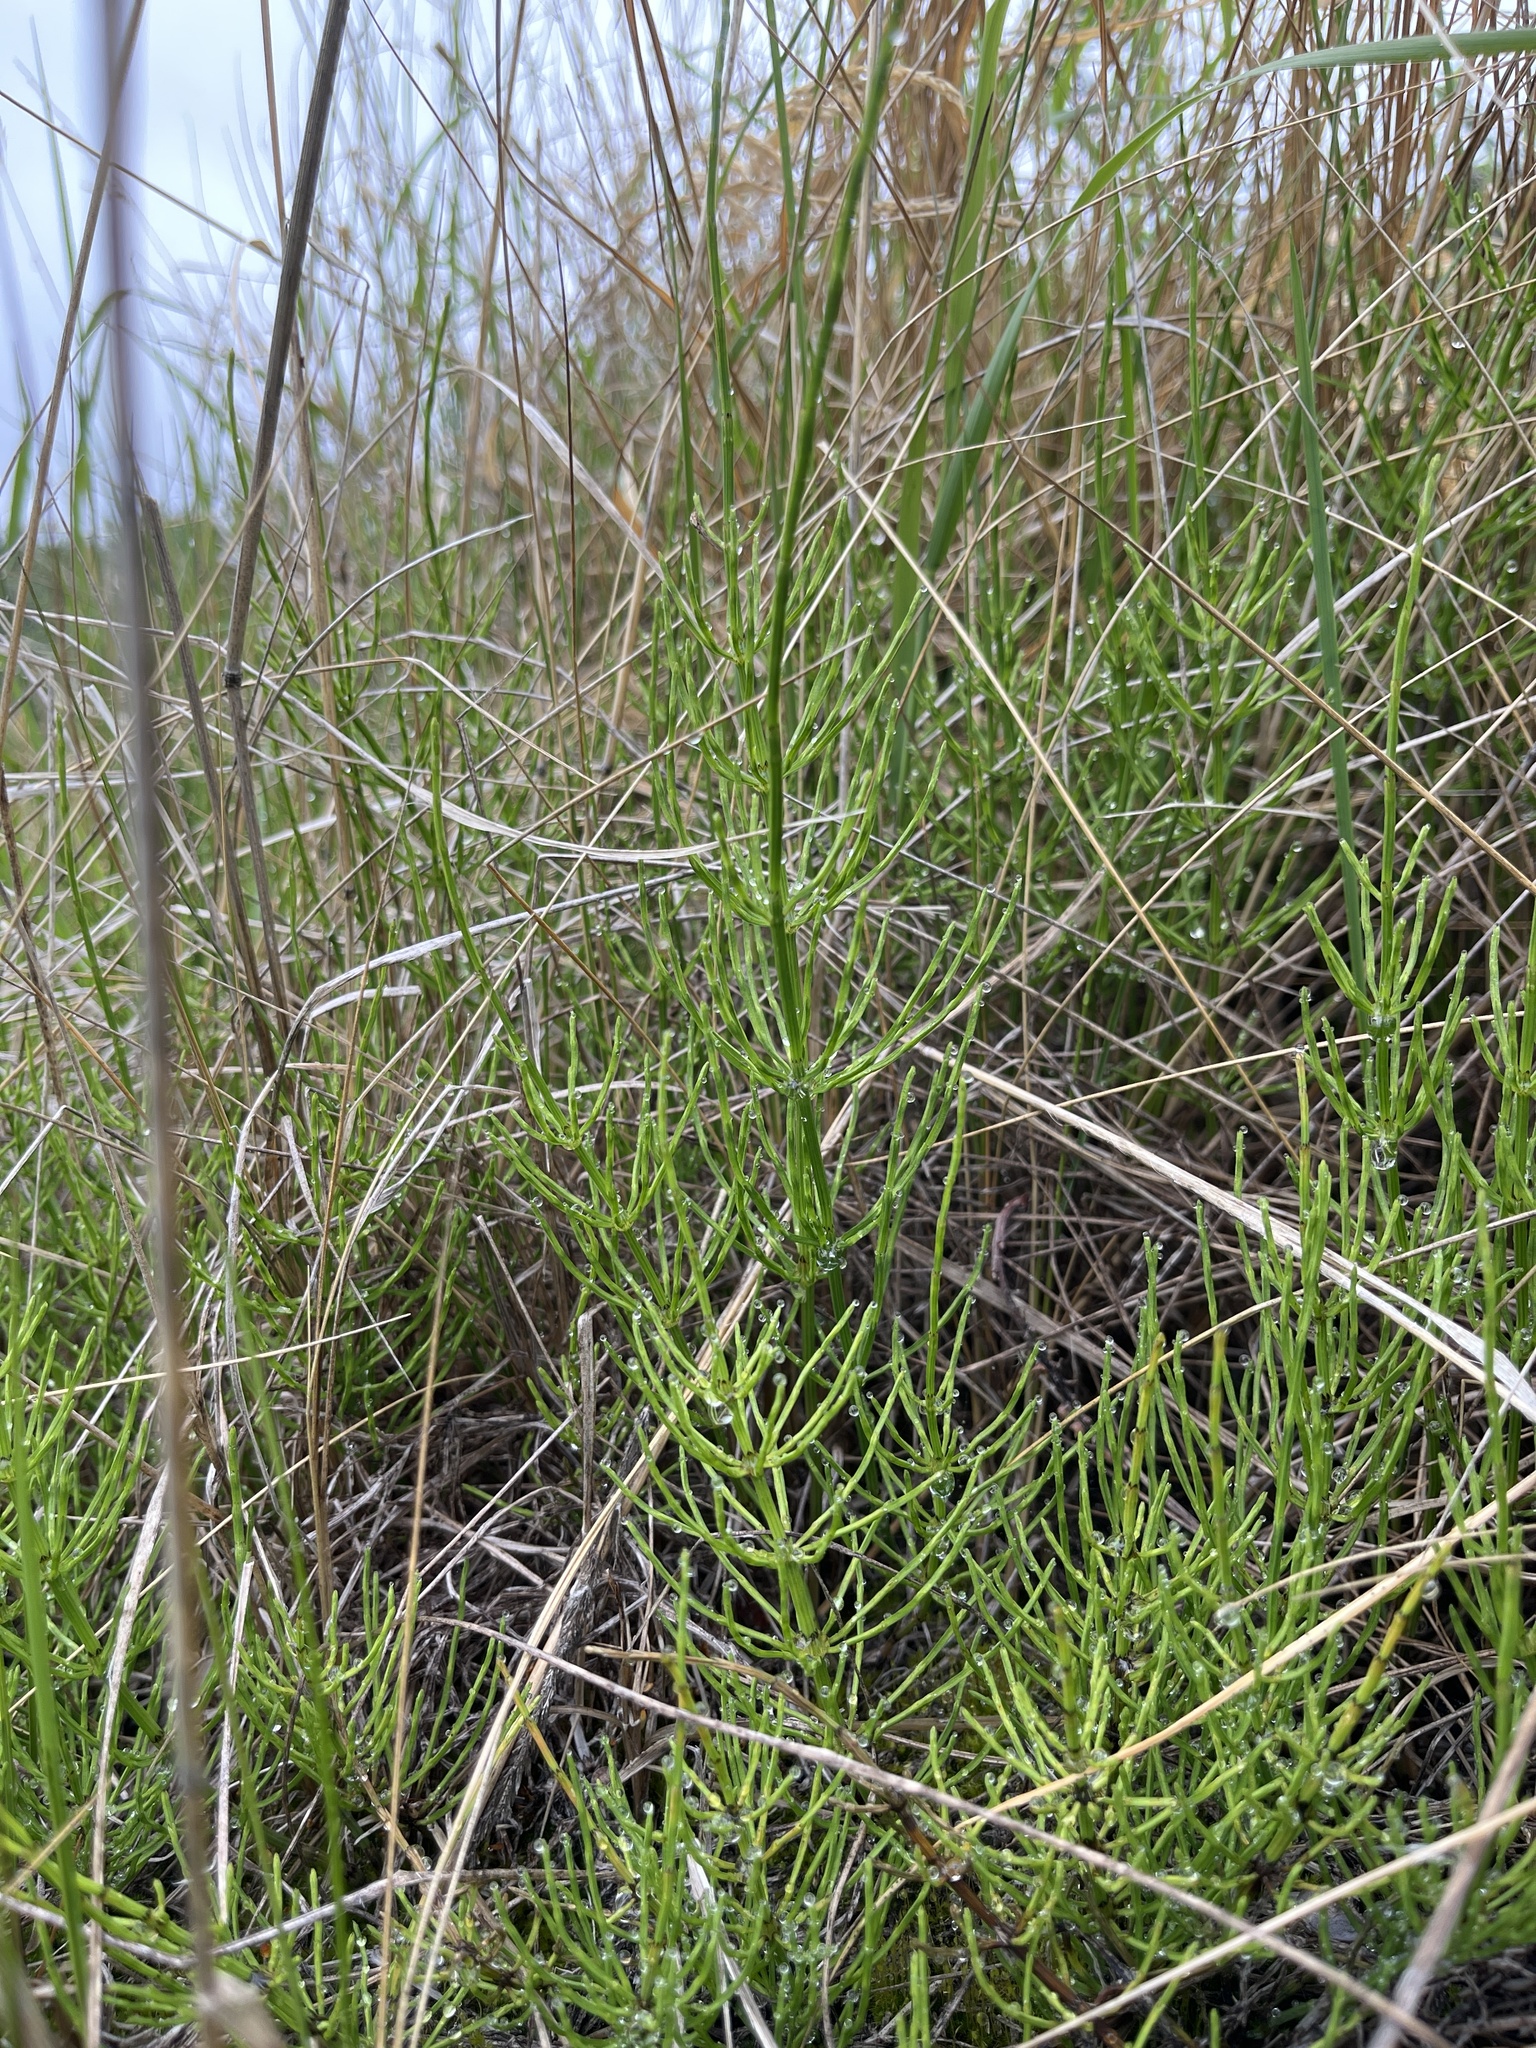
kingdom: Plantae
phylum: Tracheophyta
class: Polypodiopsida
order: Equisetales
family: Equisetaceae
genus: Equisetum
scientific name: Equisetum arvense
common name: Field horsetail
